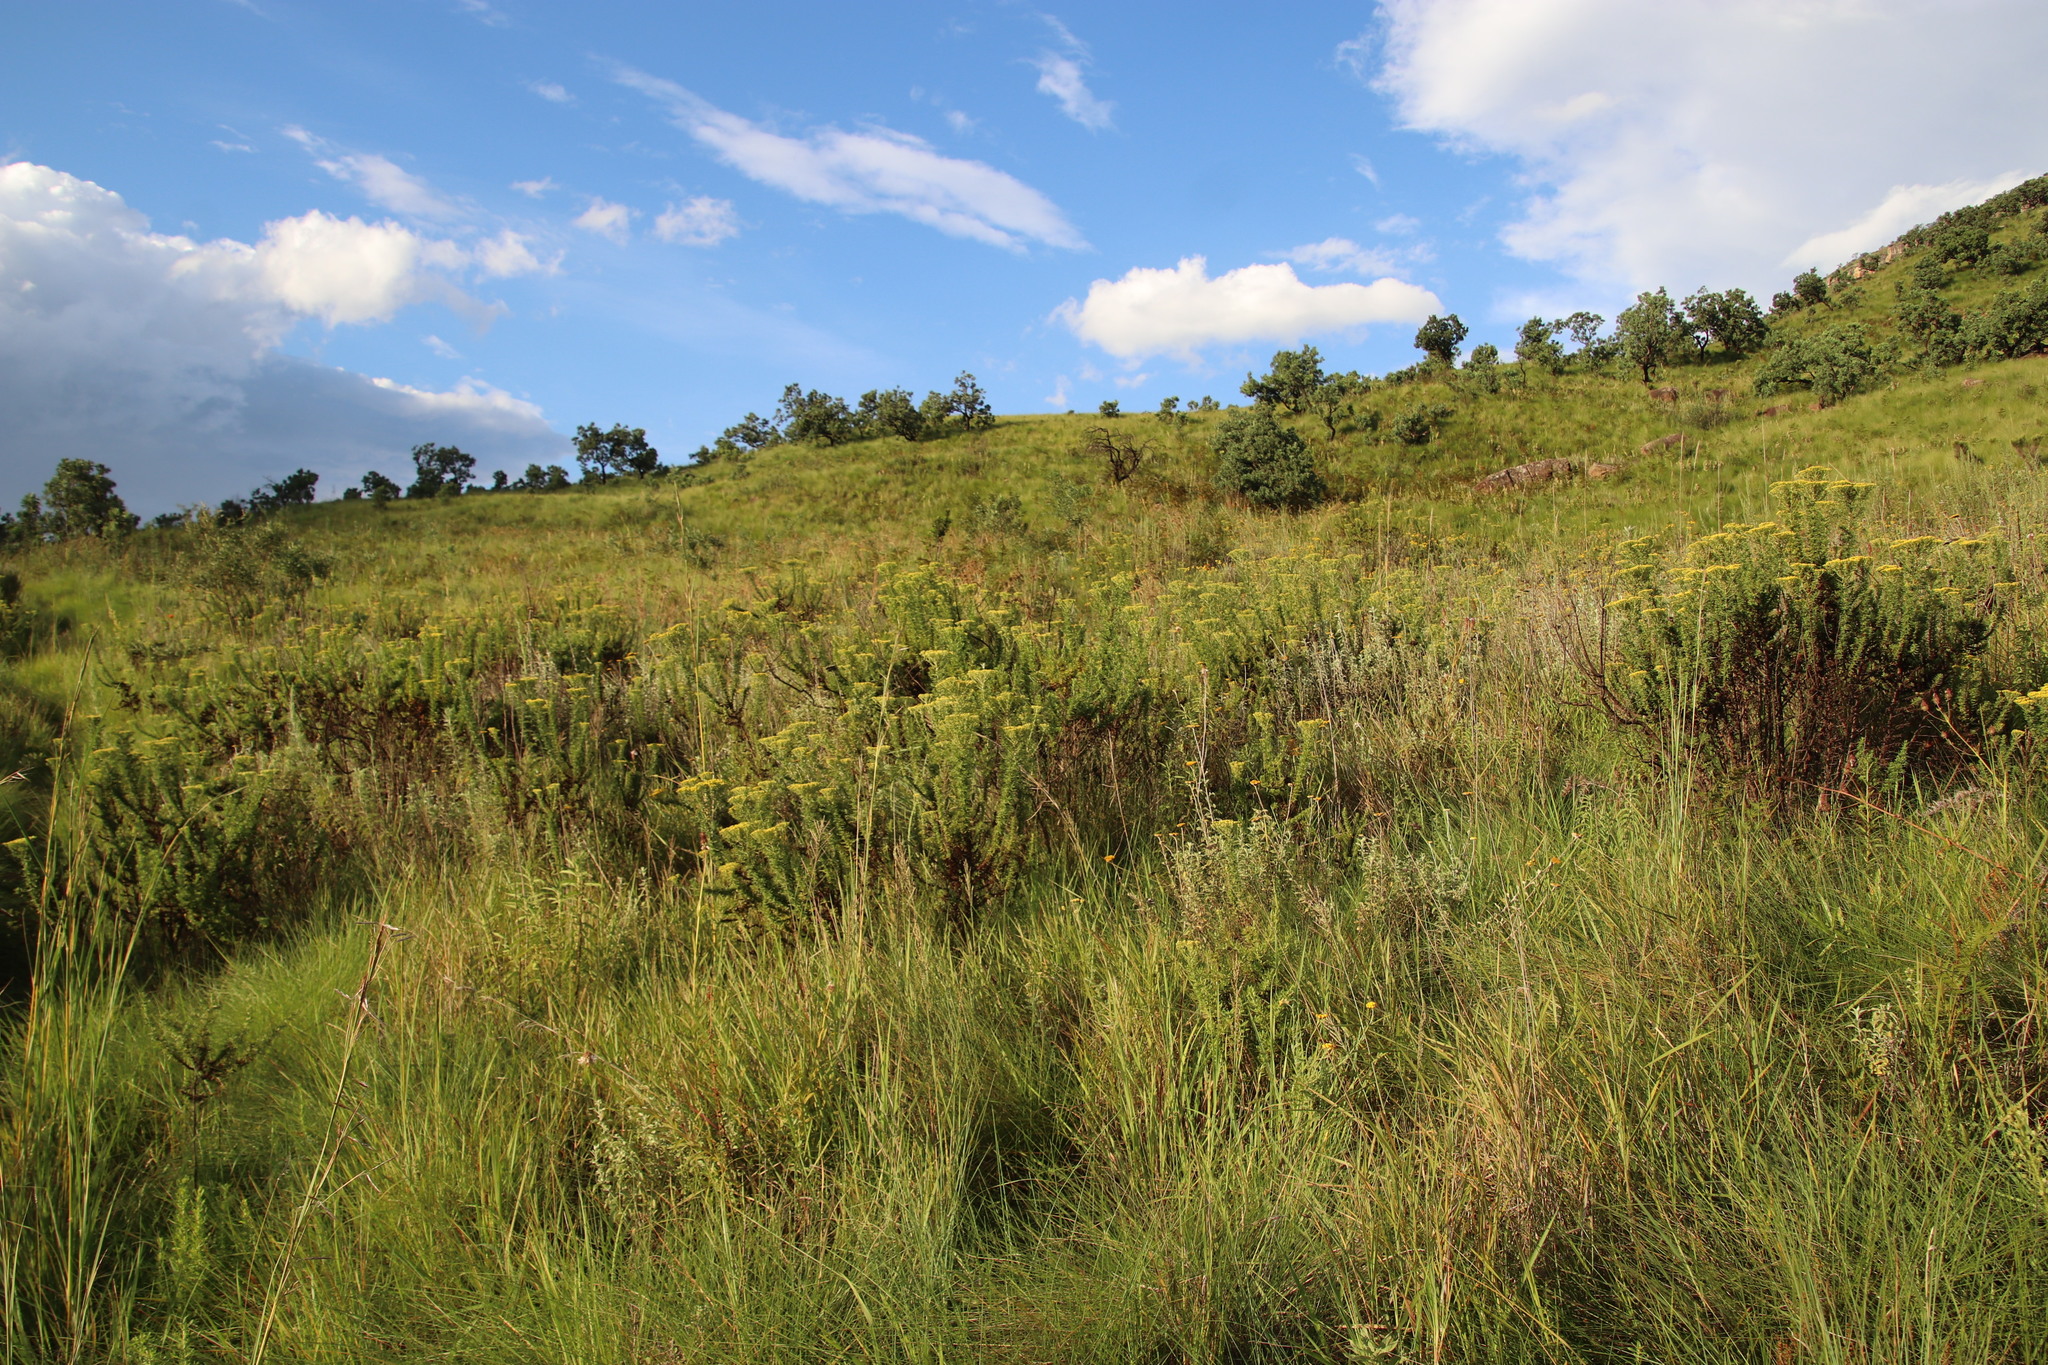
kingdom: Plantae
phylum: Tracheophyta
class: Magnoliopsida
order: Lamiales
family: Lamiaceae
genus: Coleus
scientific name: Coleus kirkii
